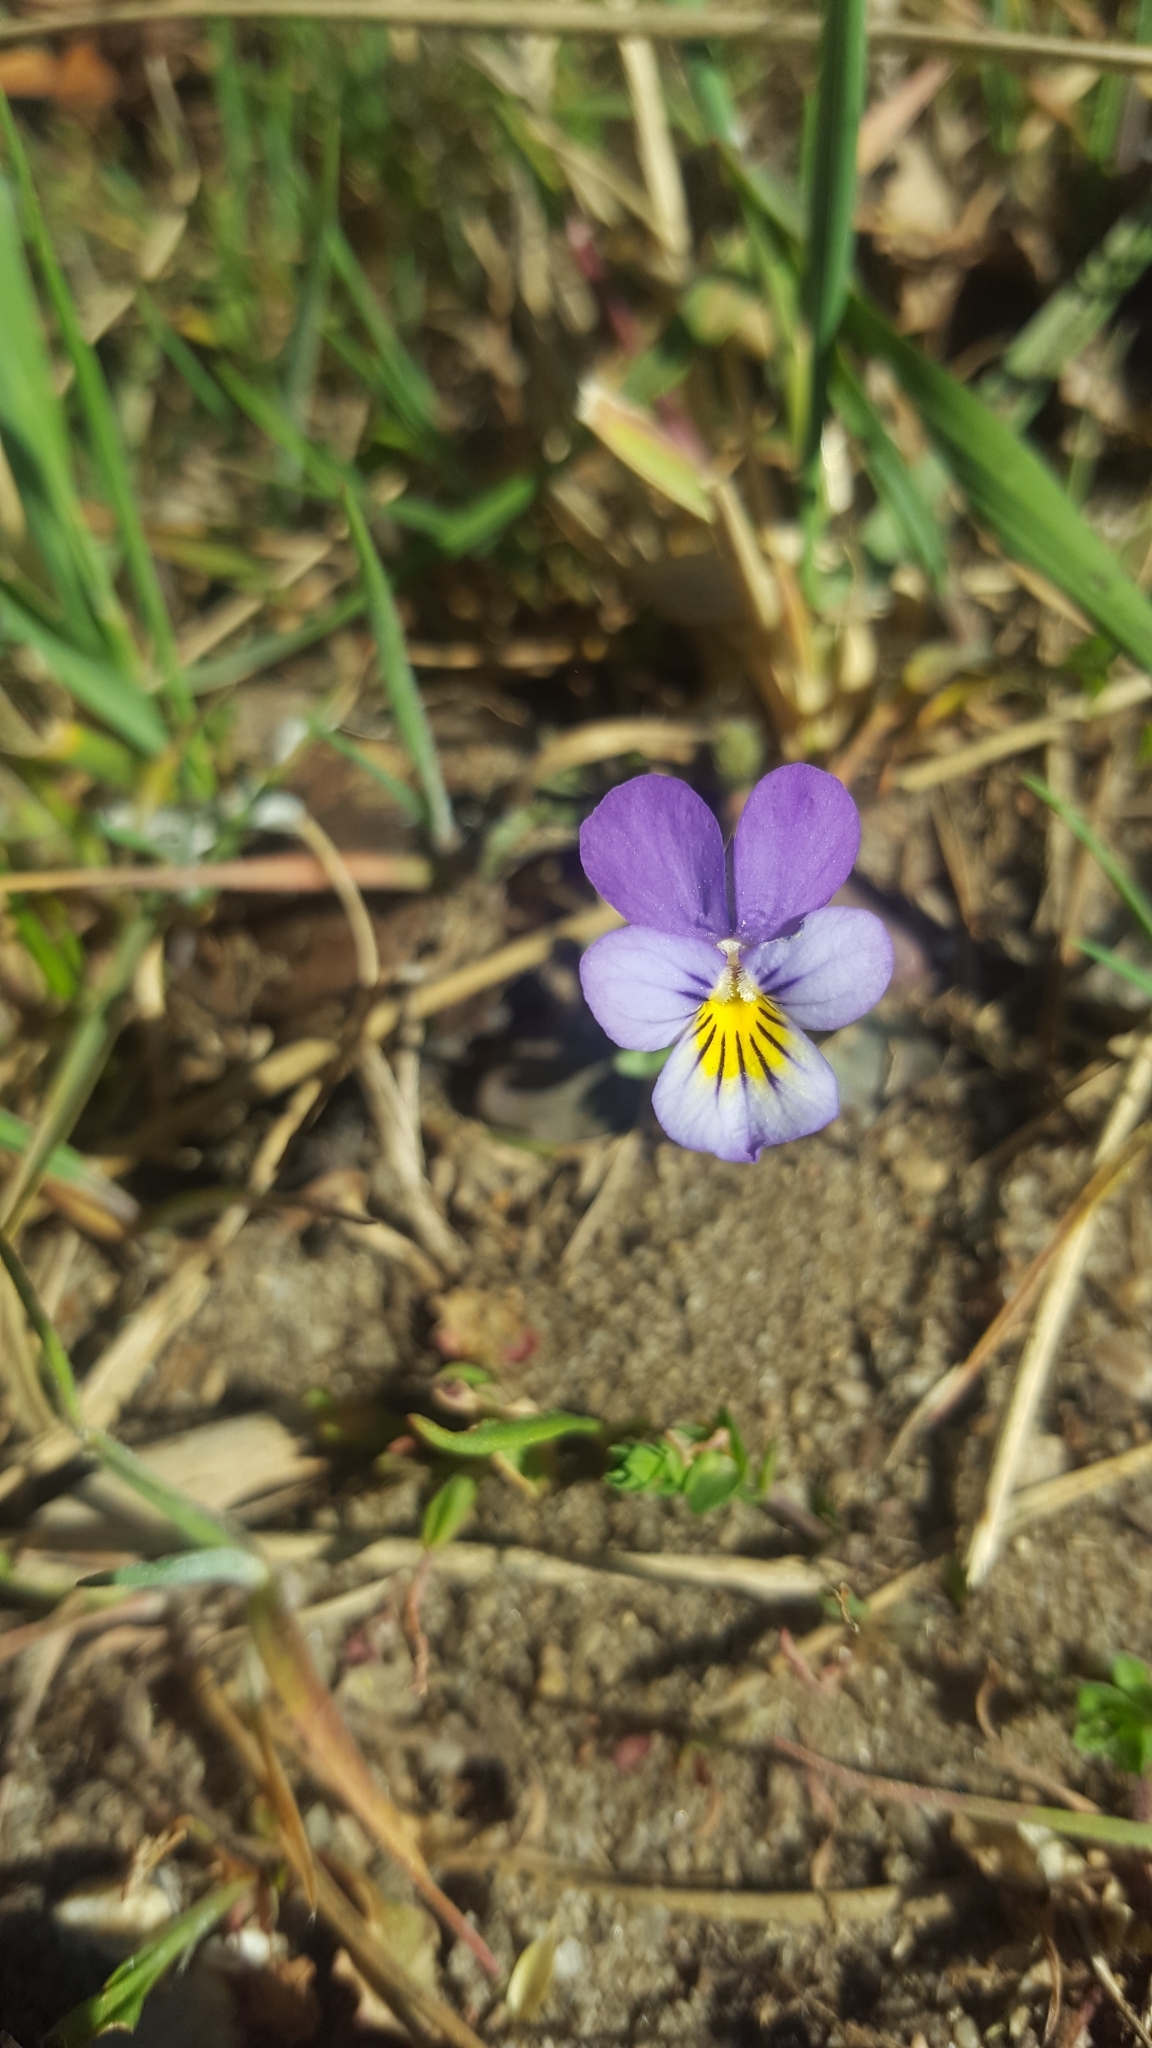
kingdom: Plantae
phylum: Tracheophyta
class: Magnoliopsida
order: Malpighiales
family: Violaceae
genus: Viola
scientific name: Viola tricolor
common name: Pansy
